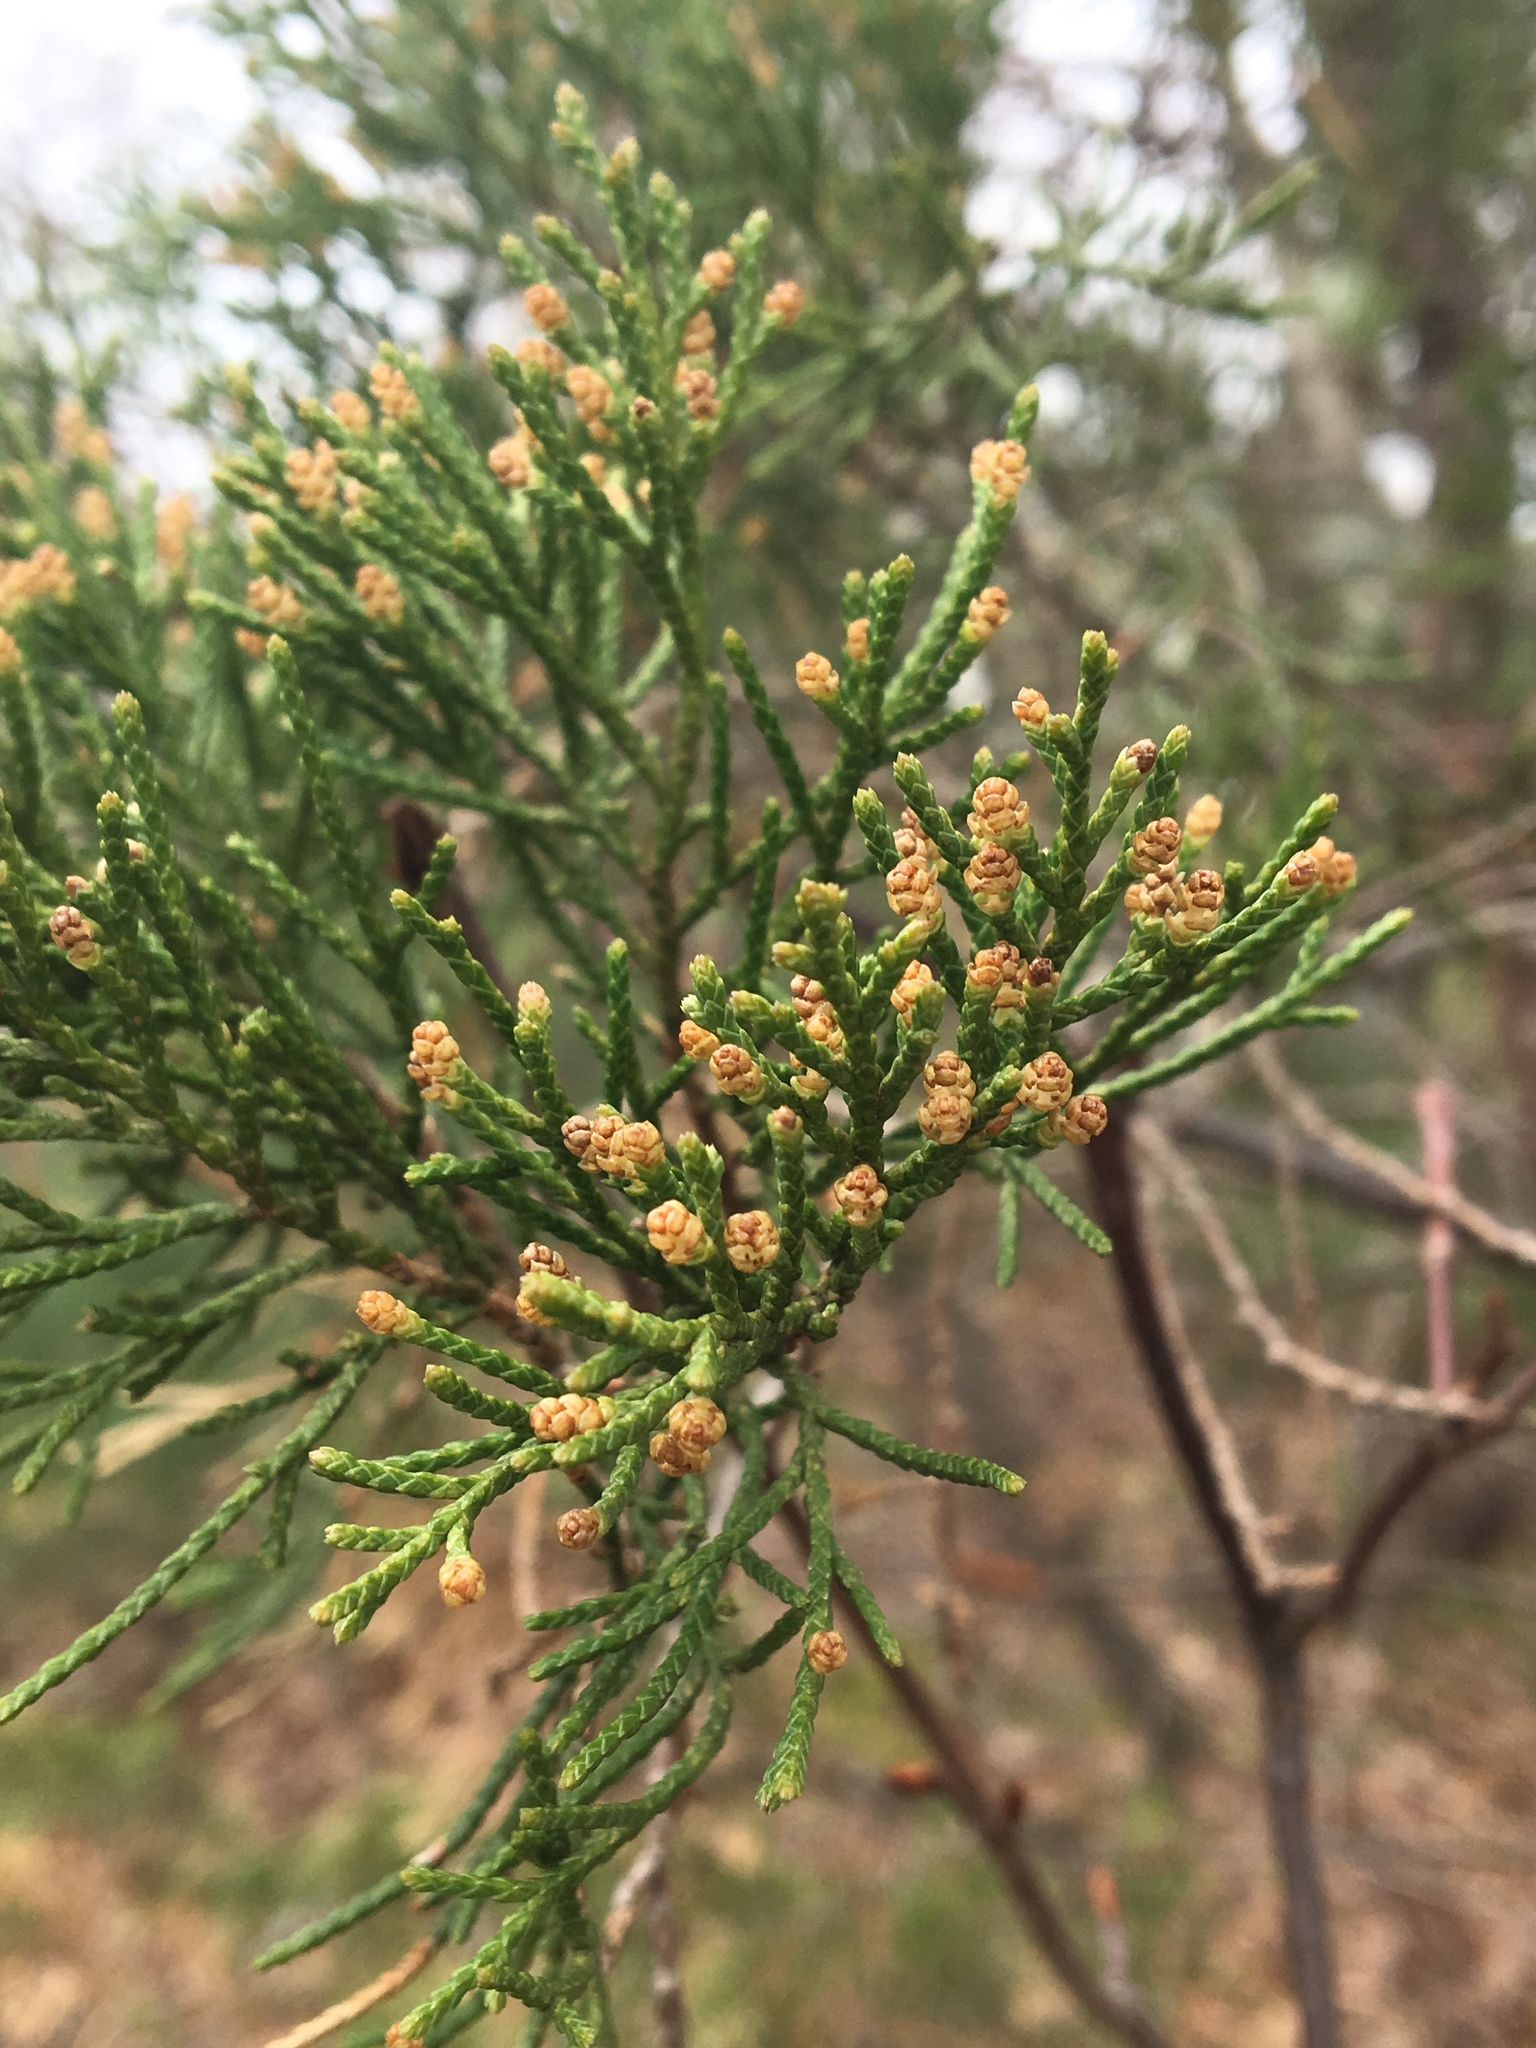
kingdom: Plantae
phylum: Tracheophyta
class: Pinopsida
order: Pinales
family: Cupressaceae
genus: Juniperus
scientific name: Juniperus virginiana
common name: Red juniper
